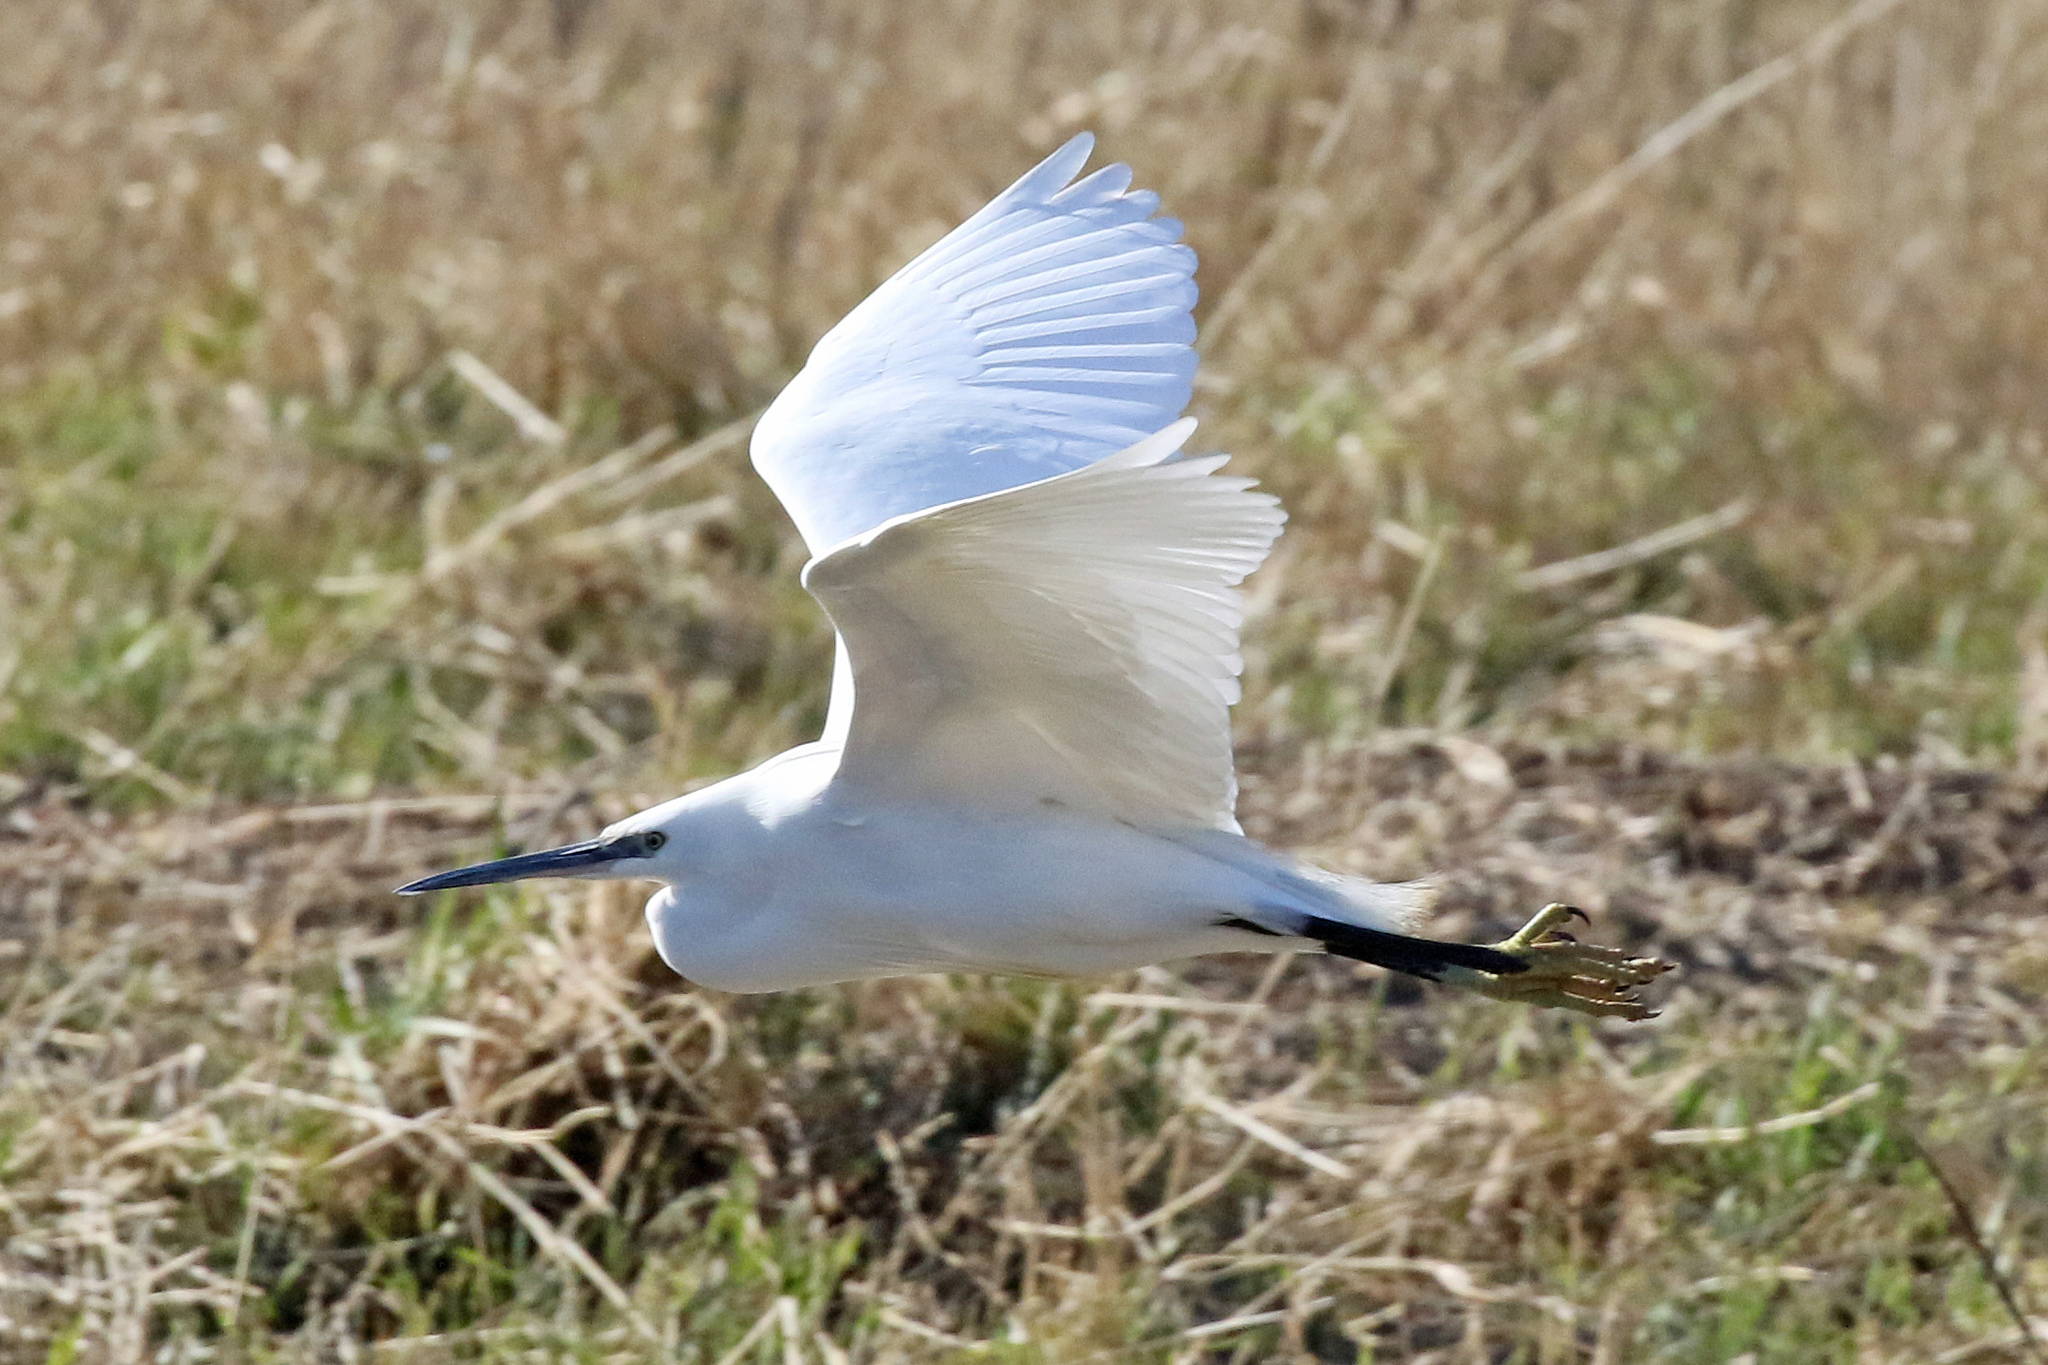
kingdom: Animalia
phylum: Chordata
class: Aves
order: Pelecaniformes
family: Ardeidae
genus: Egretta
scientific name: Egretta garzetta
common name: Little egret
